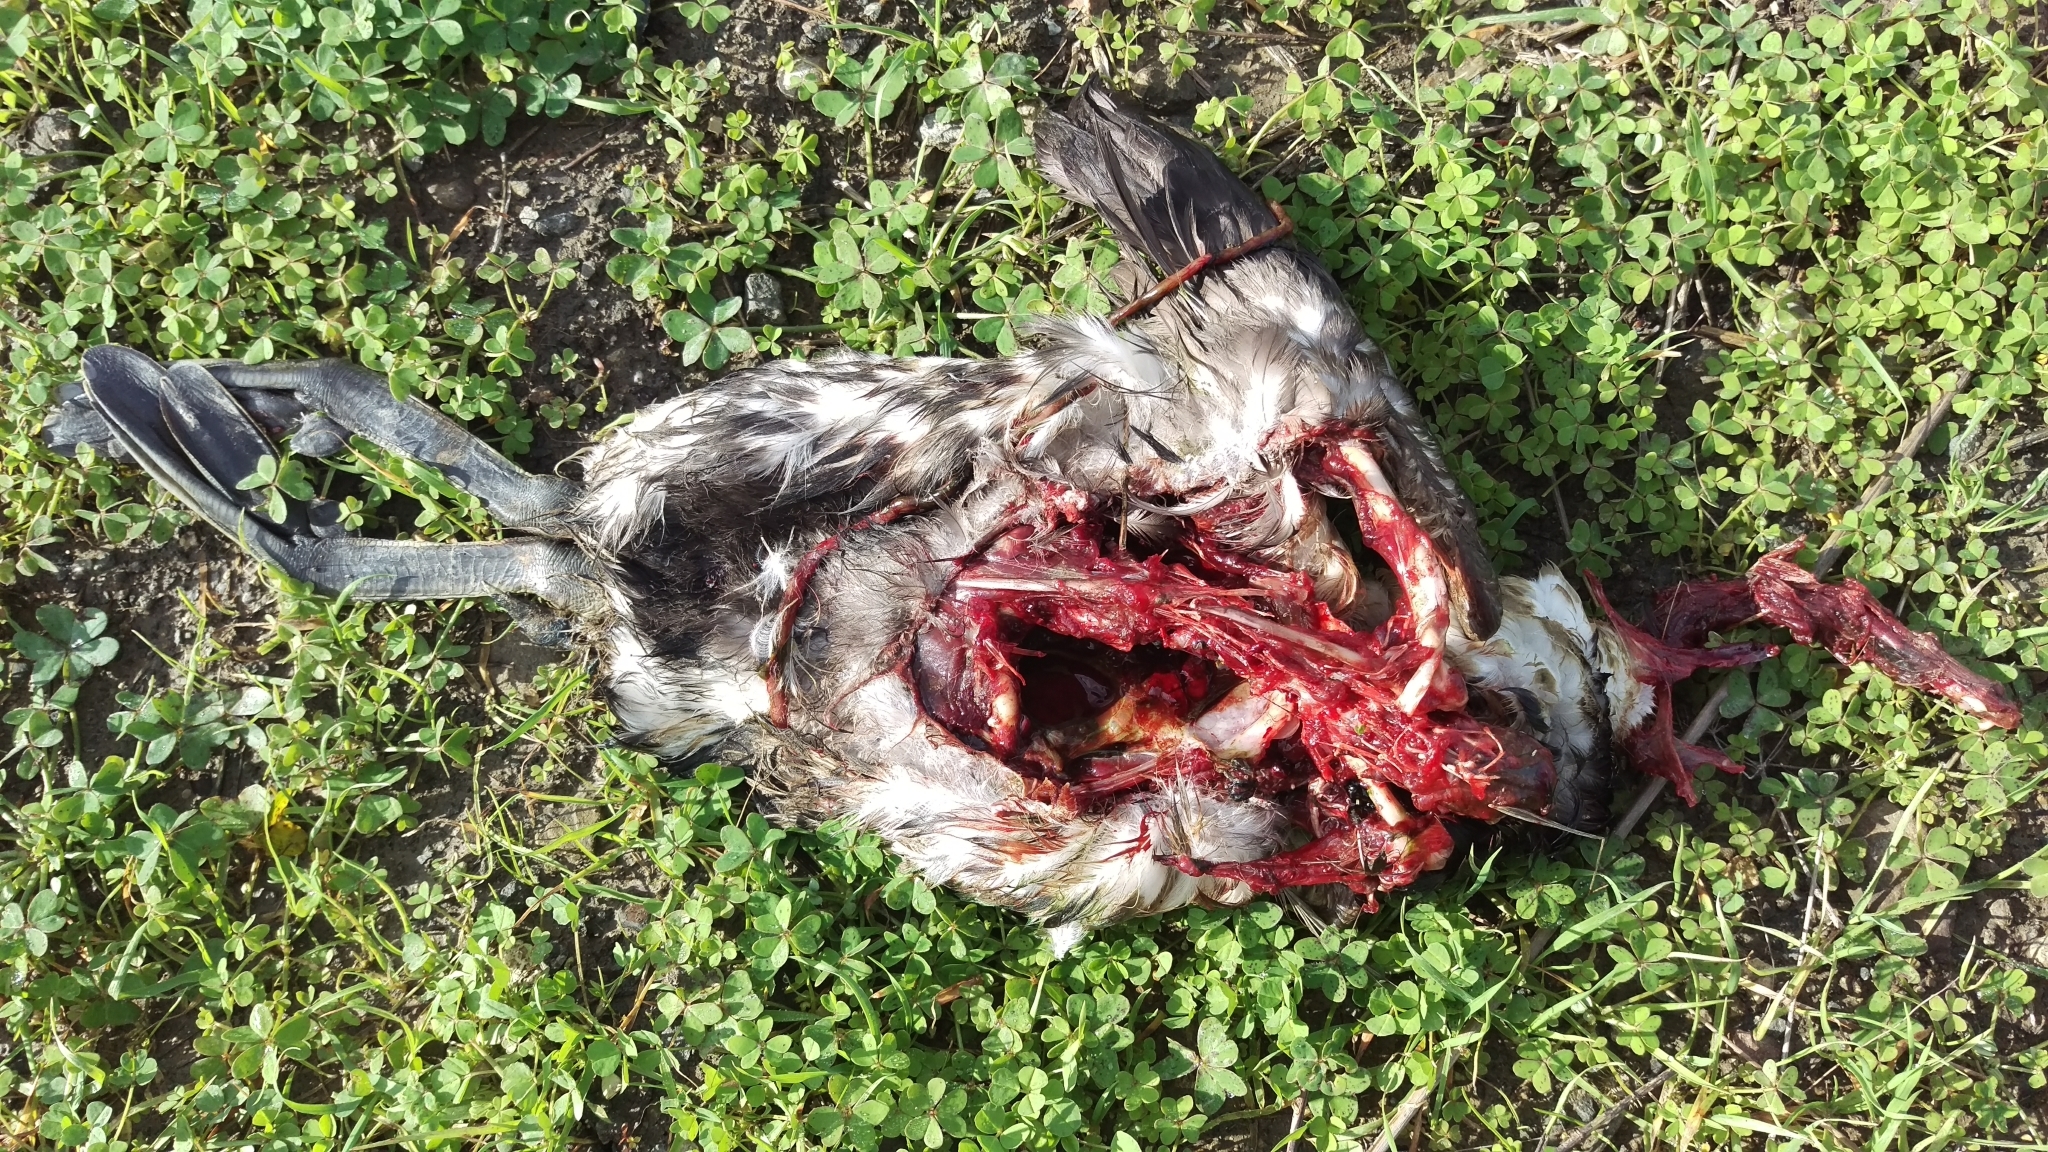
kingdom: Animalia
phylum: Chordata
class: Aves
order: Gruiformes
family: Rallidae
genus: Fulica
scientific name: Fulica americana
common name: American coot
